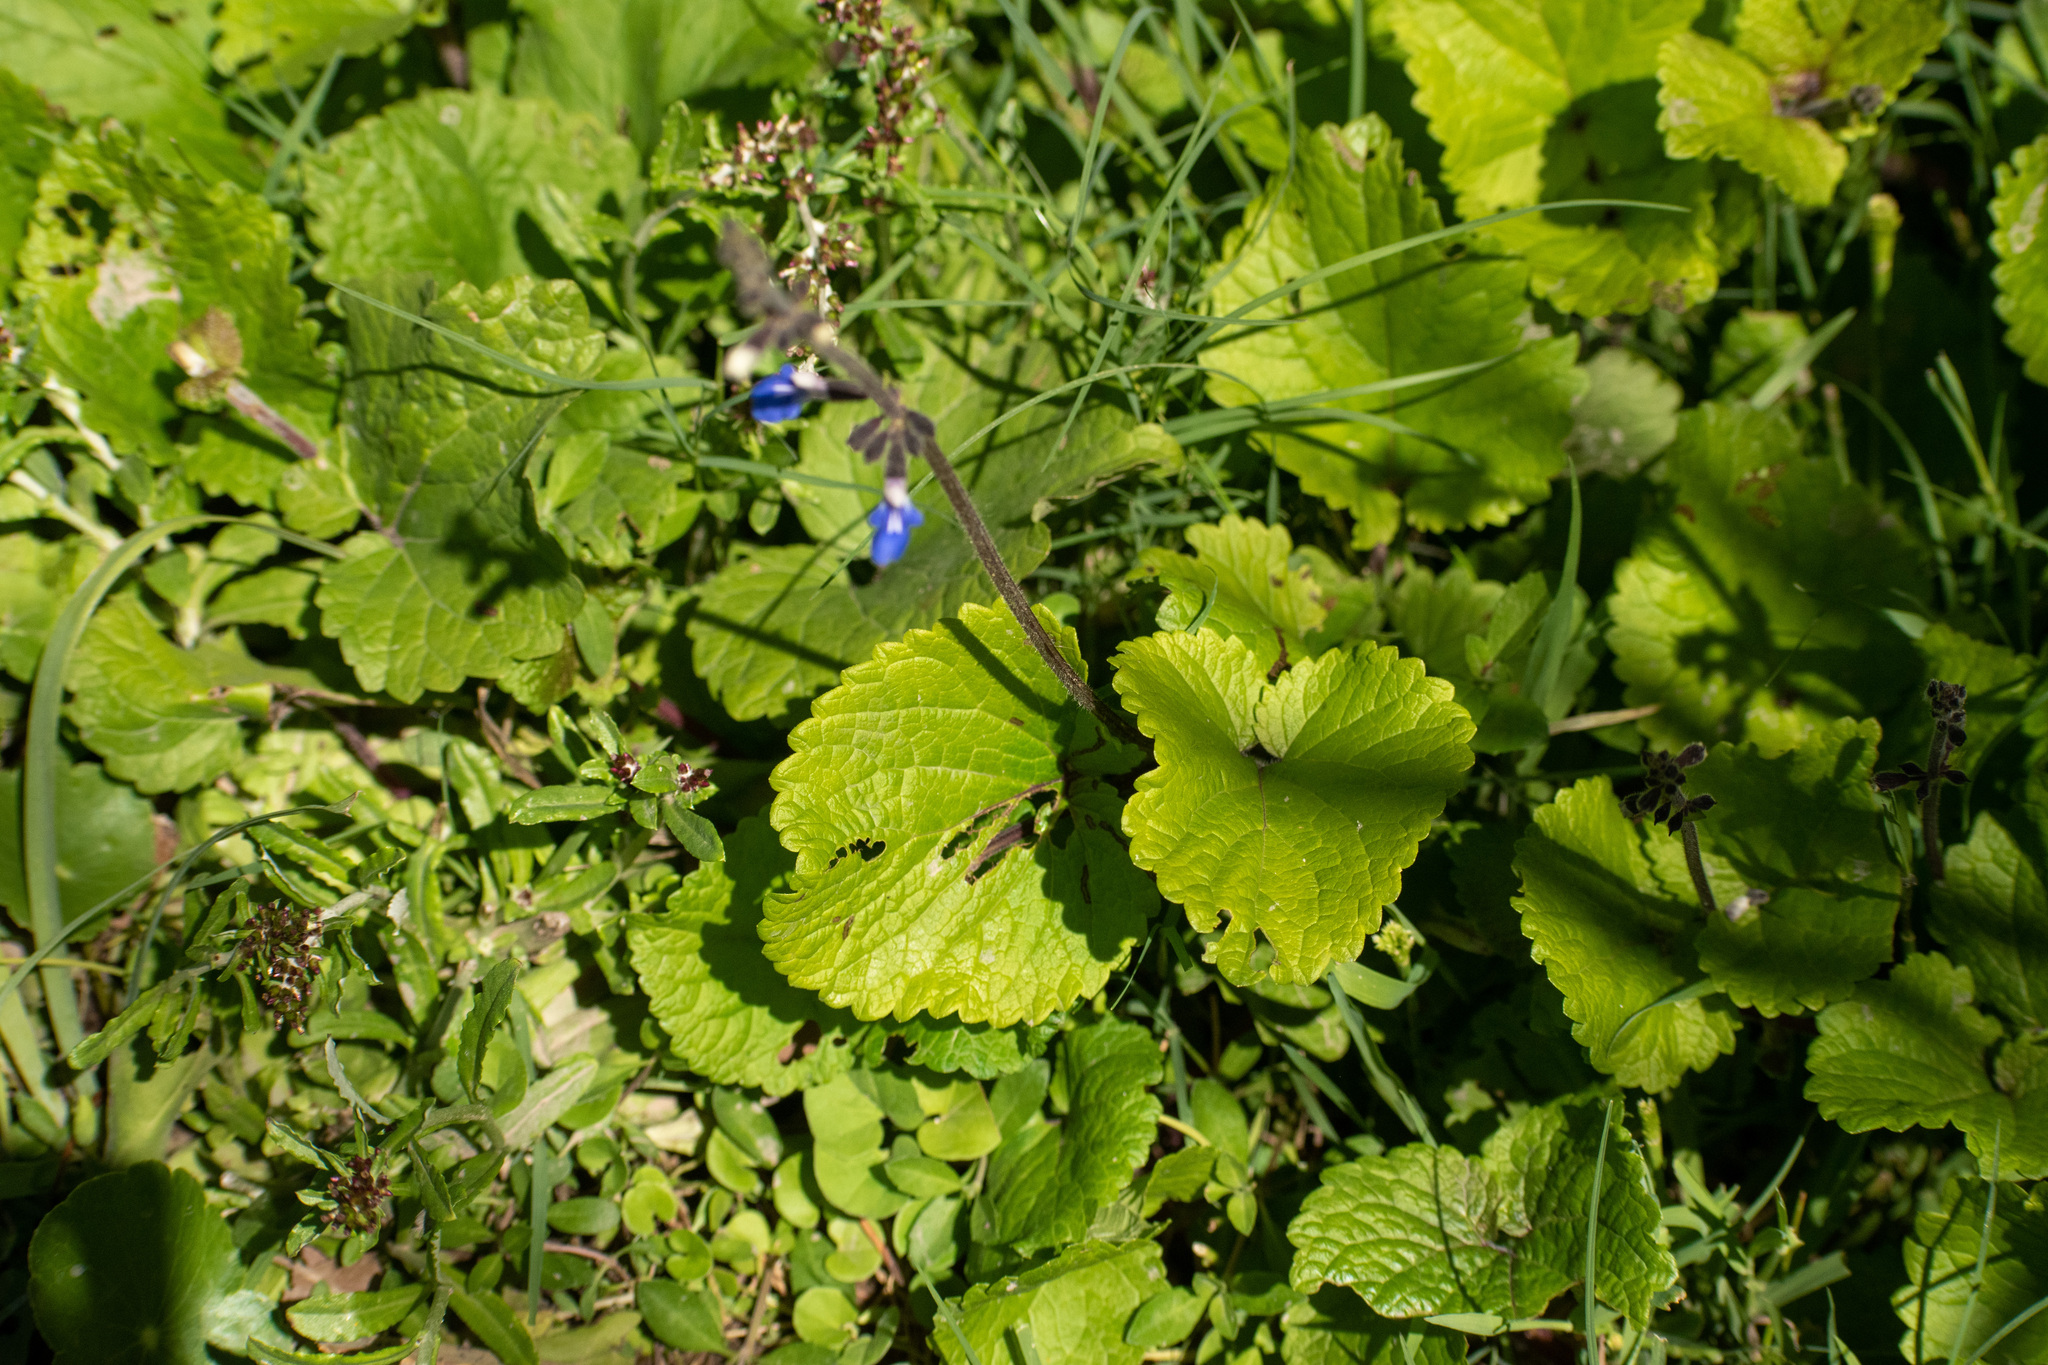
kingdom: Plantae
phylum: Tracheophyta
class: Magnoliopsida
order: Lamiales
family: Lamiaceae
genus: Salvia
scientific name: Salvia procurrens
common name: Blue creeper
